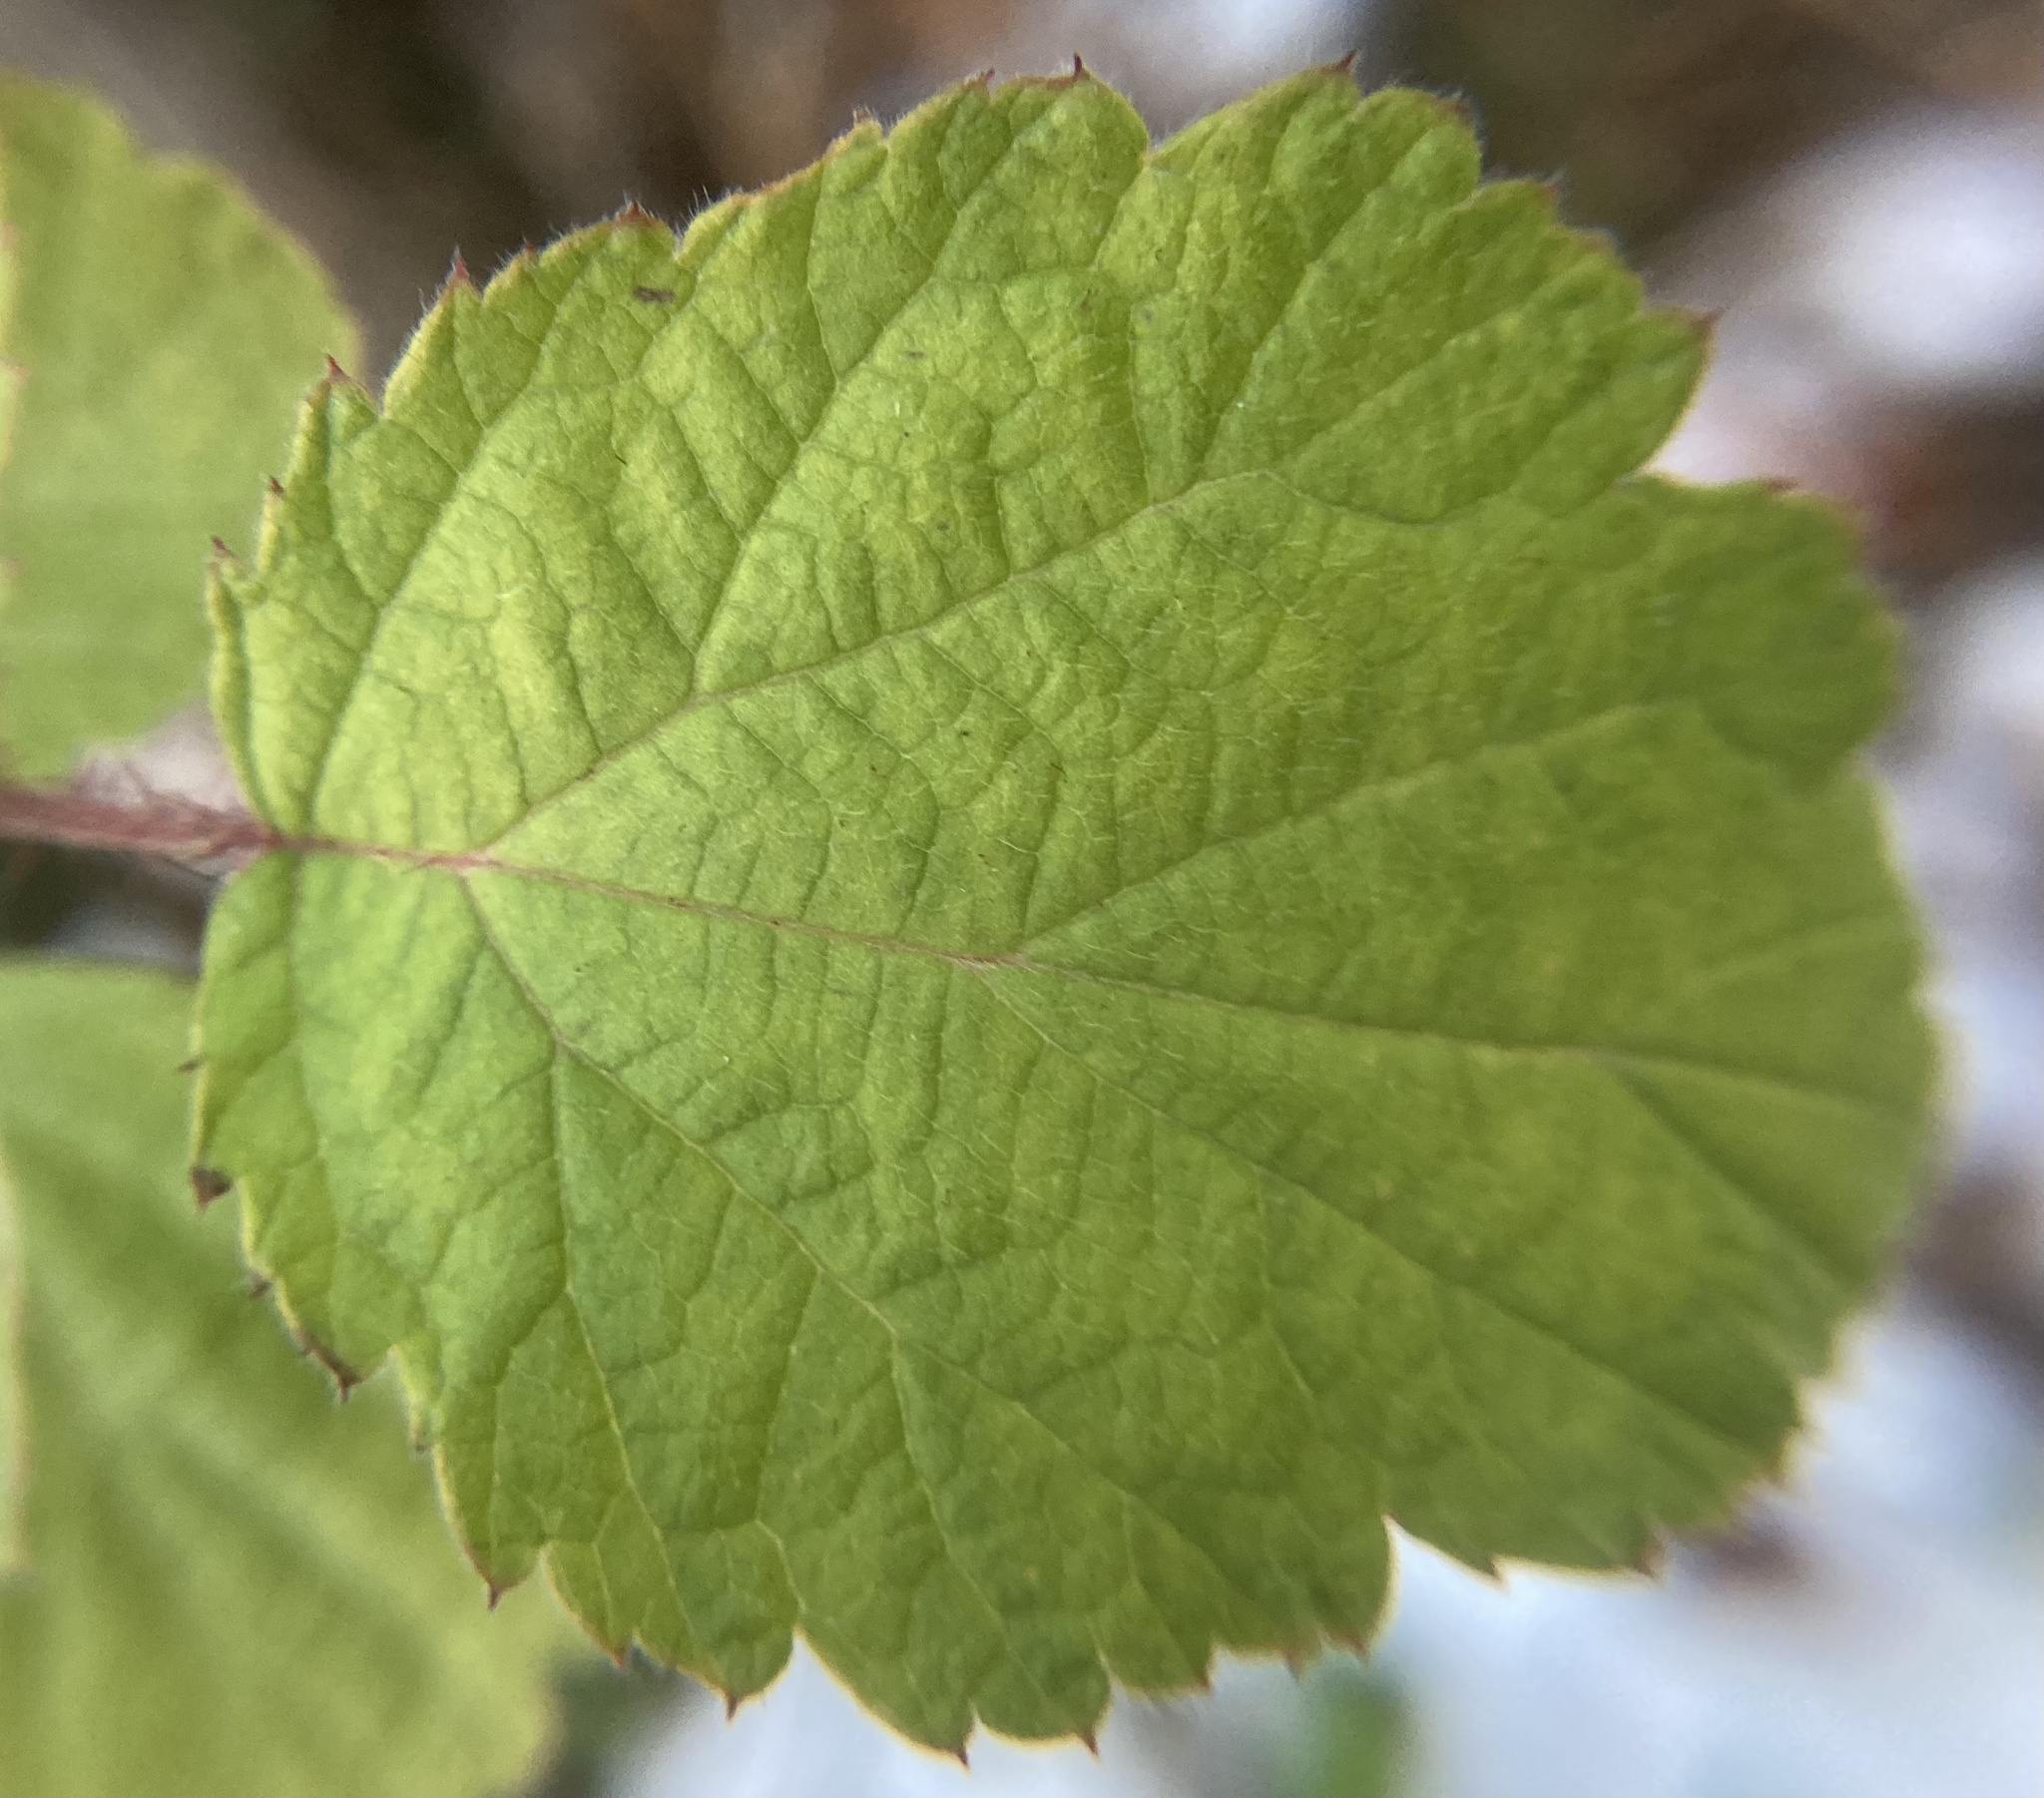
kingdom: Plantae
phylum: Tracheophyta
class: Magnoliopsida
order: Rosales
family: Rosaceae
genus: Rubus
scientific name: Rubus phoenicolasius
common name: Japanese wineberry
